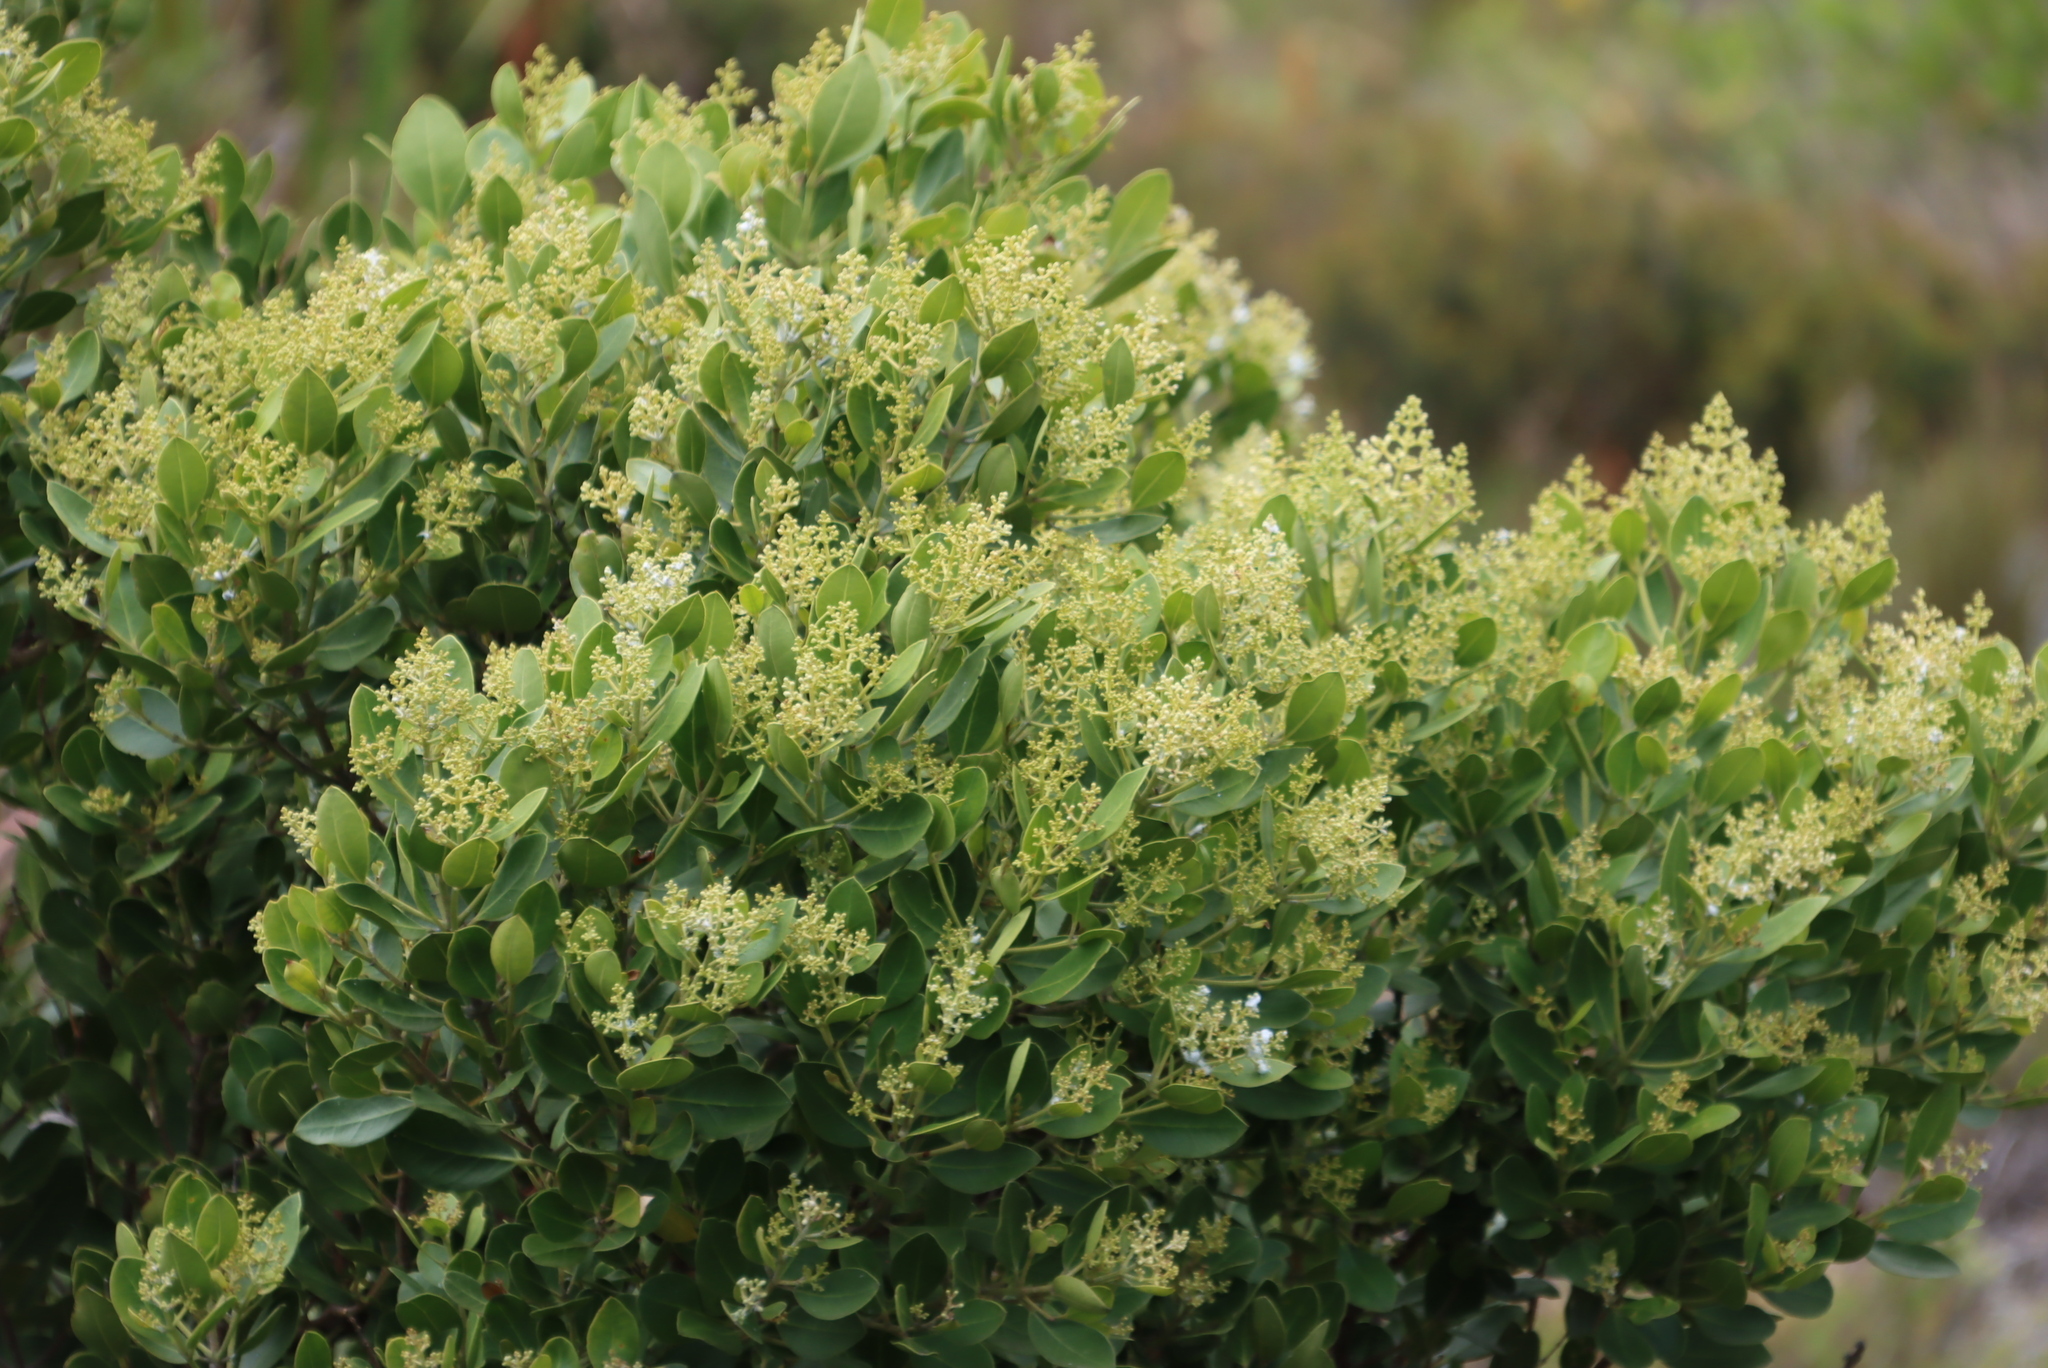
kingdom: Plantae
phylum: Tracheophyta
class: Magnoliopsida
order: Lamiales
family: Oleaceae
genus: Olea
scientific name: Olea capensis
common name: Black ironwood
